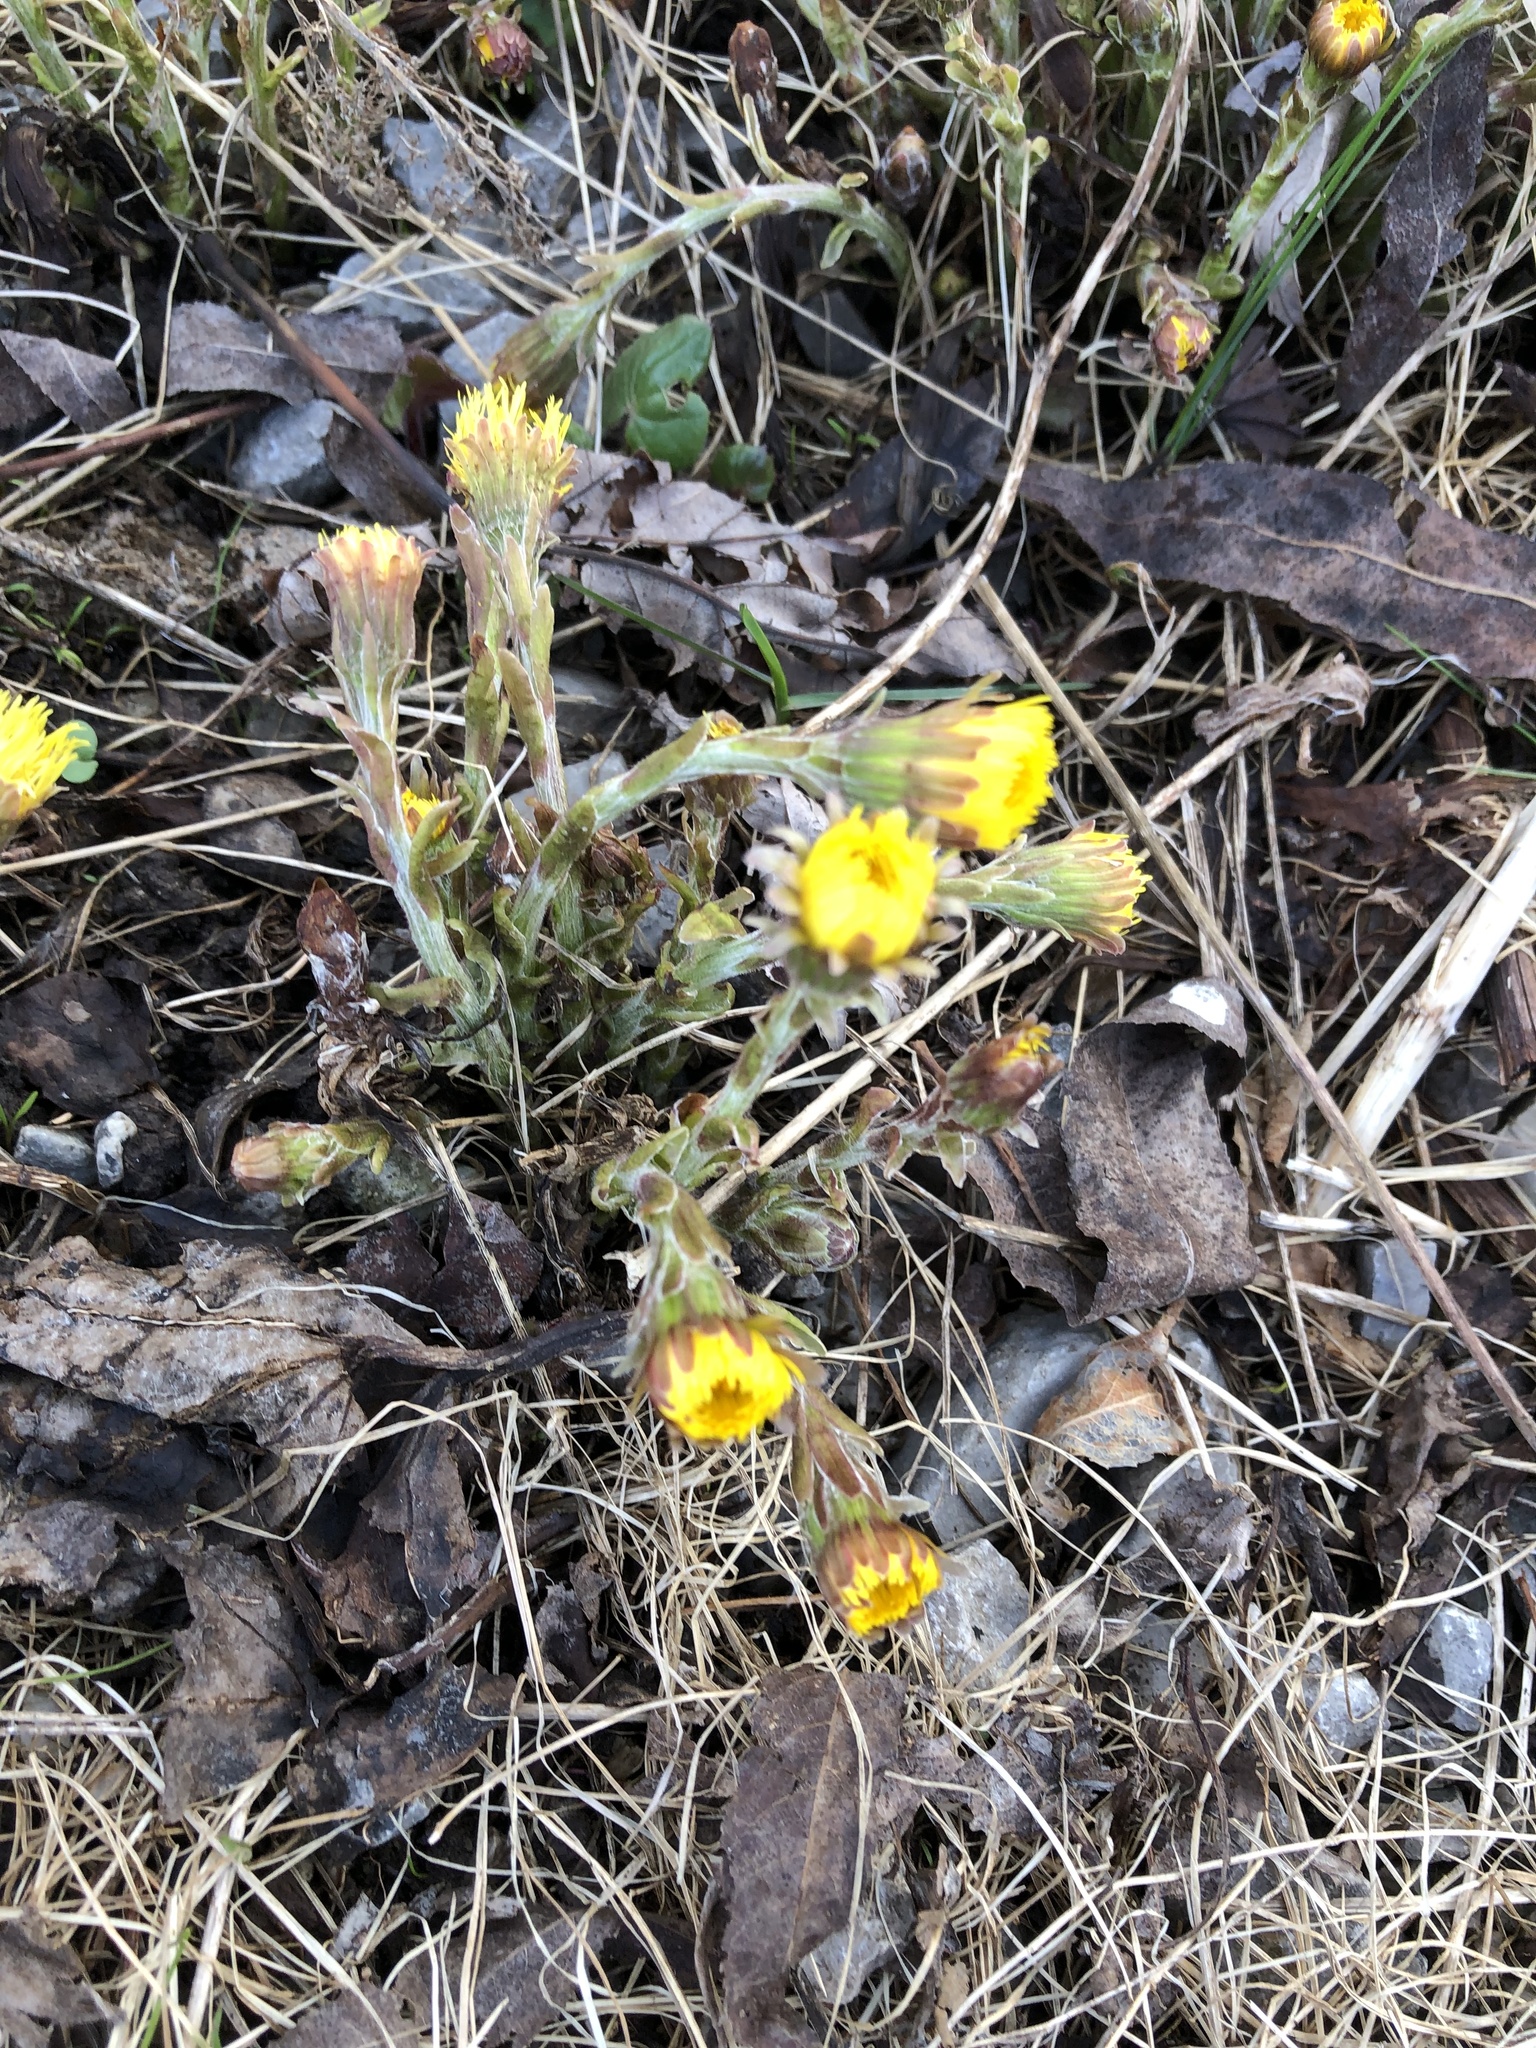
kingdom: Plantae
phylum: Tracheophyta
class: Magnoliopsida
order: Asterales
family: Asteraceae
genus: Tussilago
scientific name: Tussilago farfara
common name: Coltsfoot
